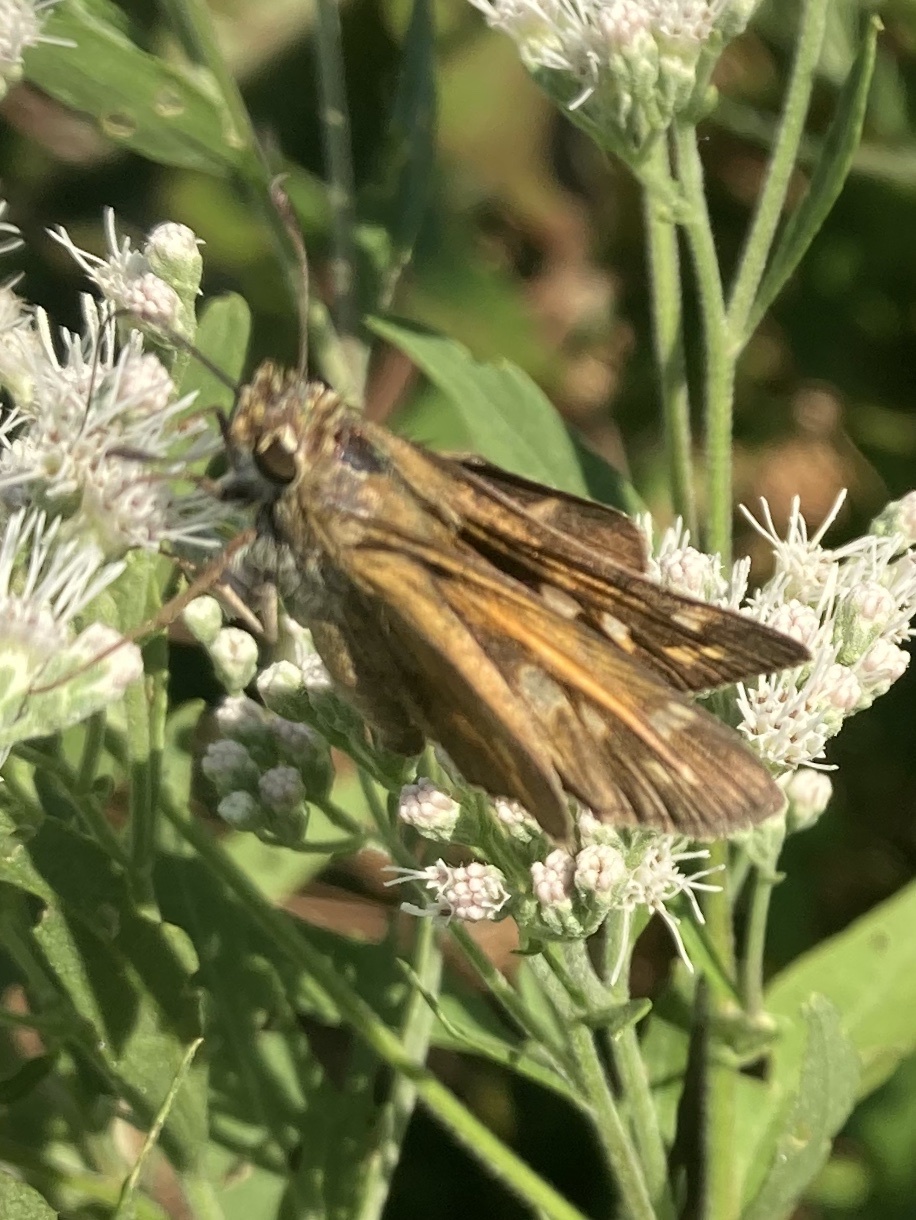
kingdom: Animalia
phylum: Arthropoda
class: Insecta
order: Lepidoptera
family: Hesperiidae
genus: Atalopedes
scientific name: Atalopedes
